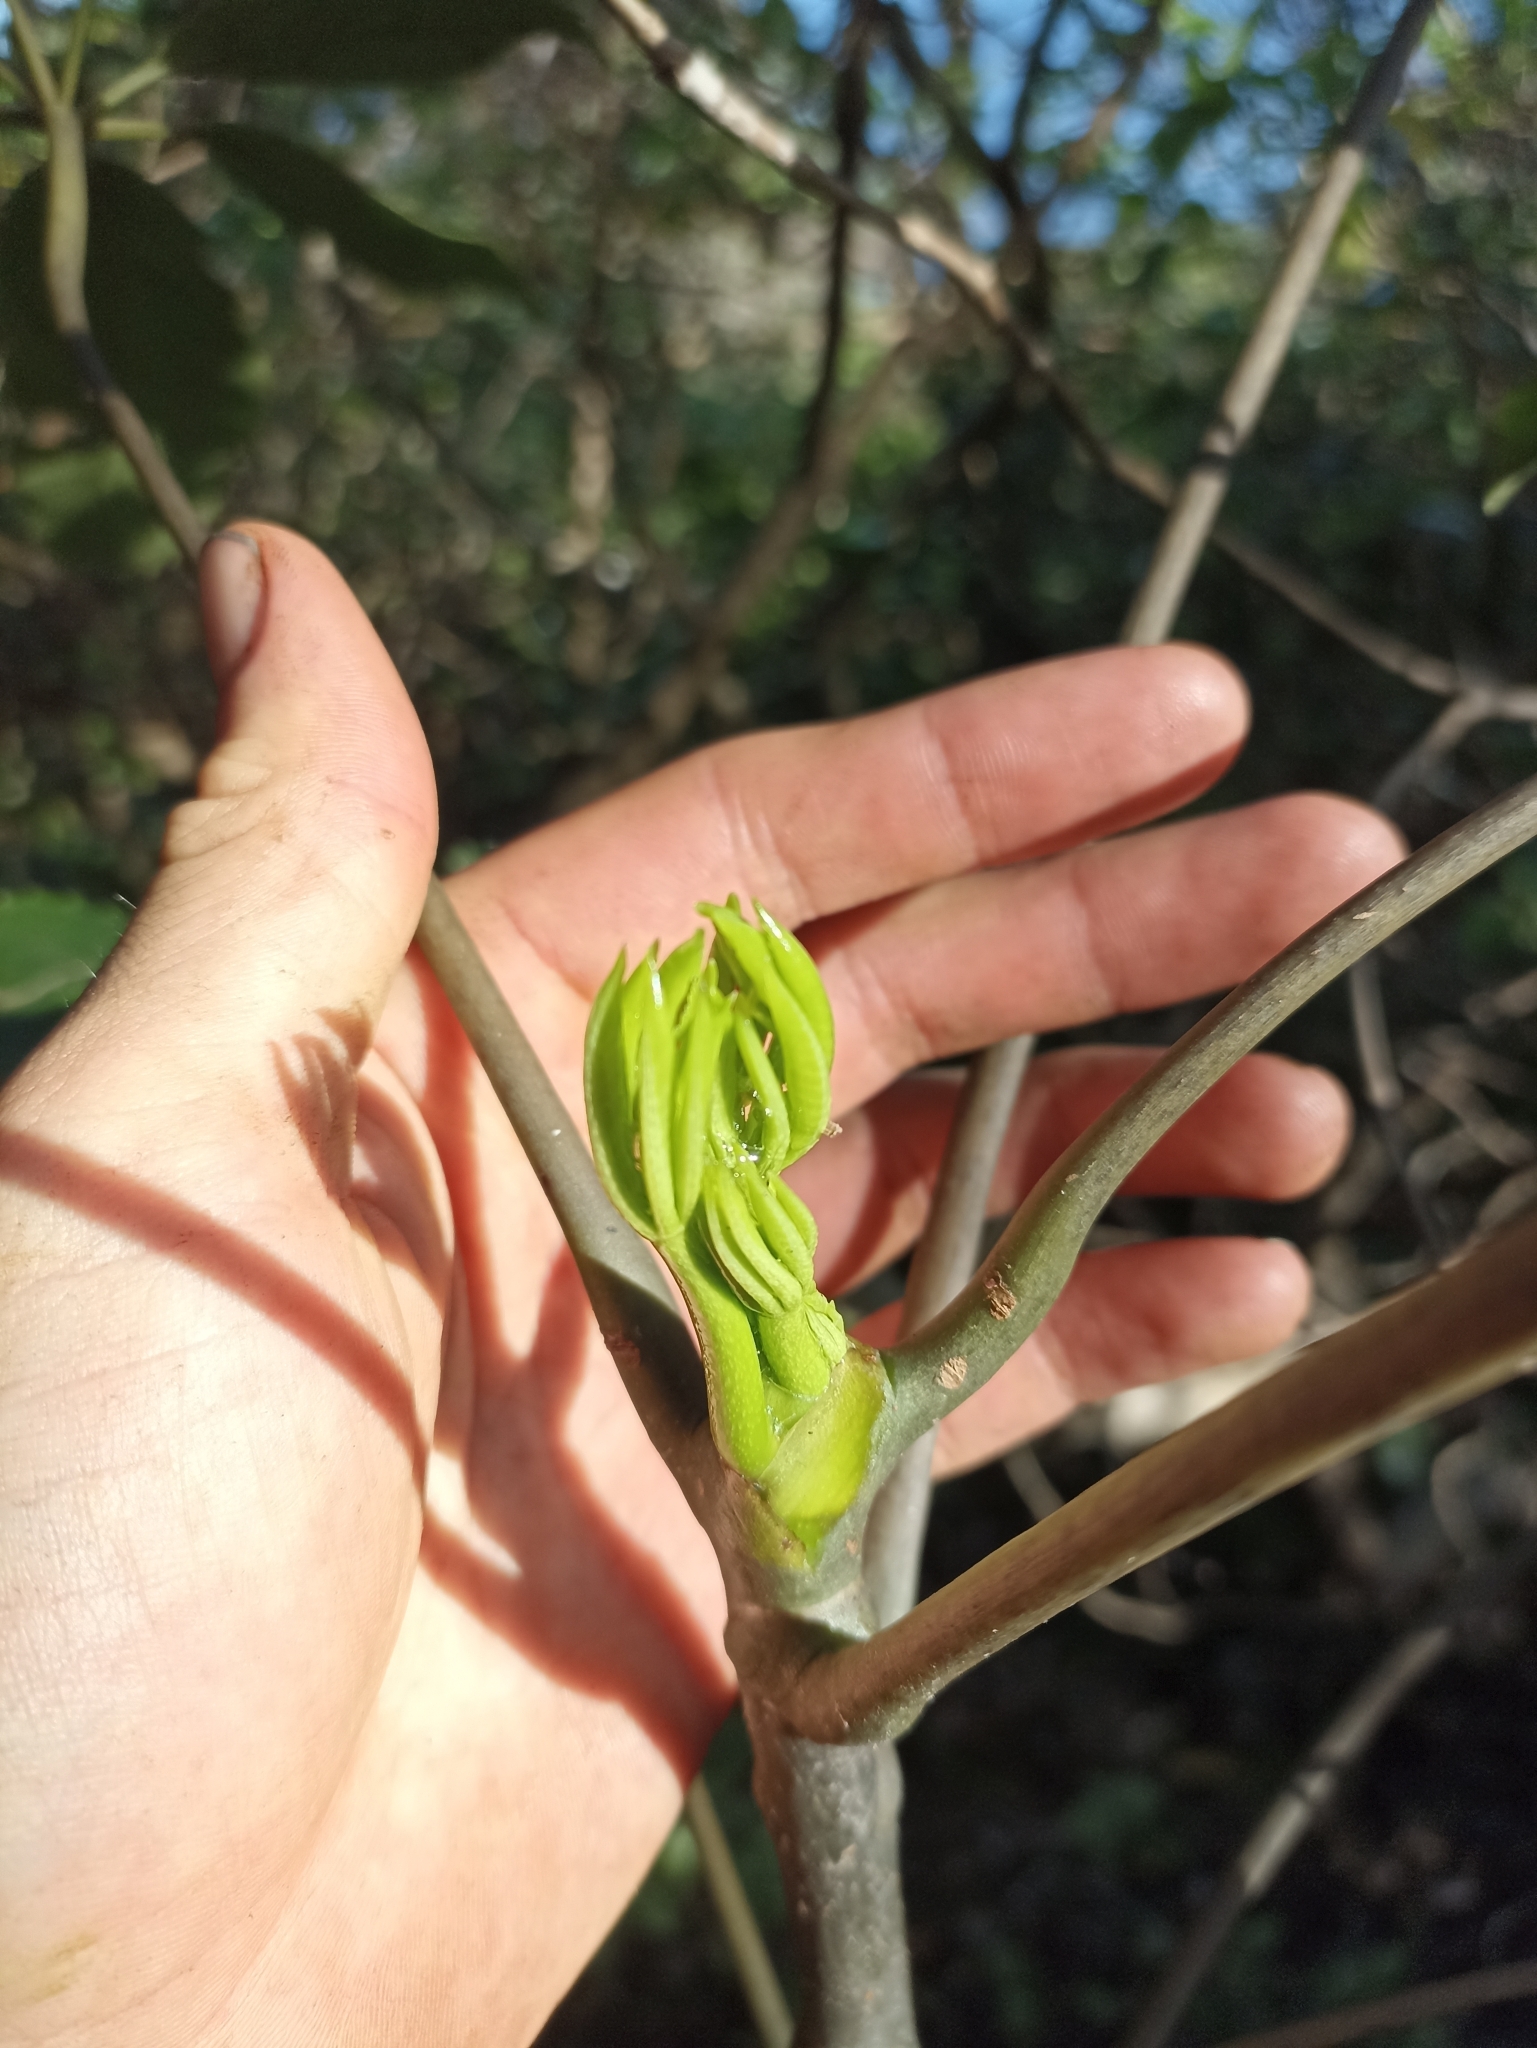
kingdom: Plantae
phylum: Tracheophyta
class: Magnoliopsida
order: Apiales
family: Araliaceae
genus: Neopanax
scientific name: Neopanax arboreus
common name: Five-fingers
